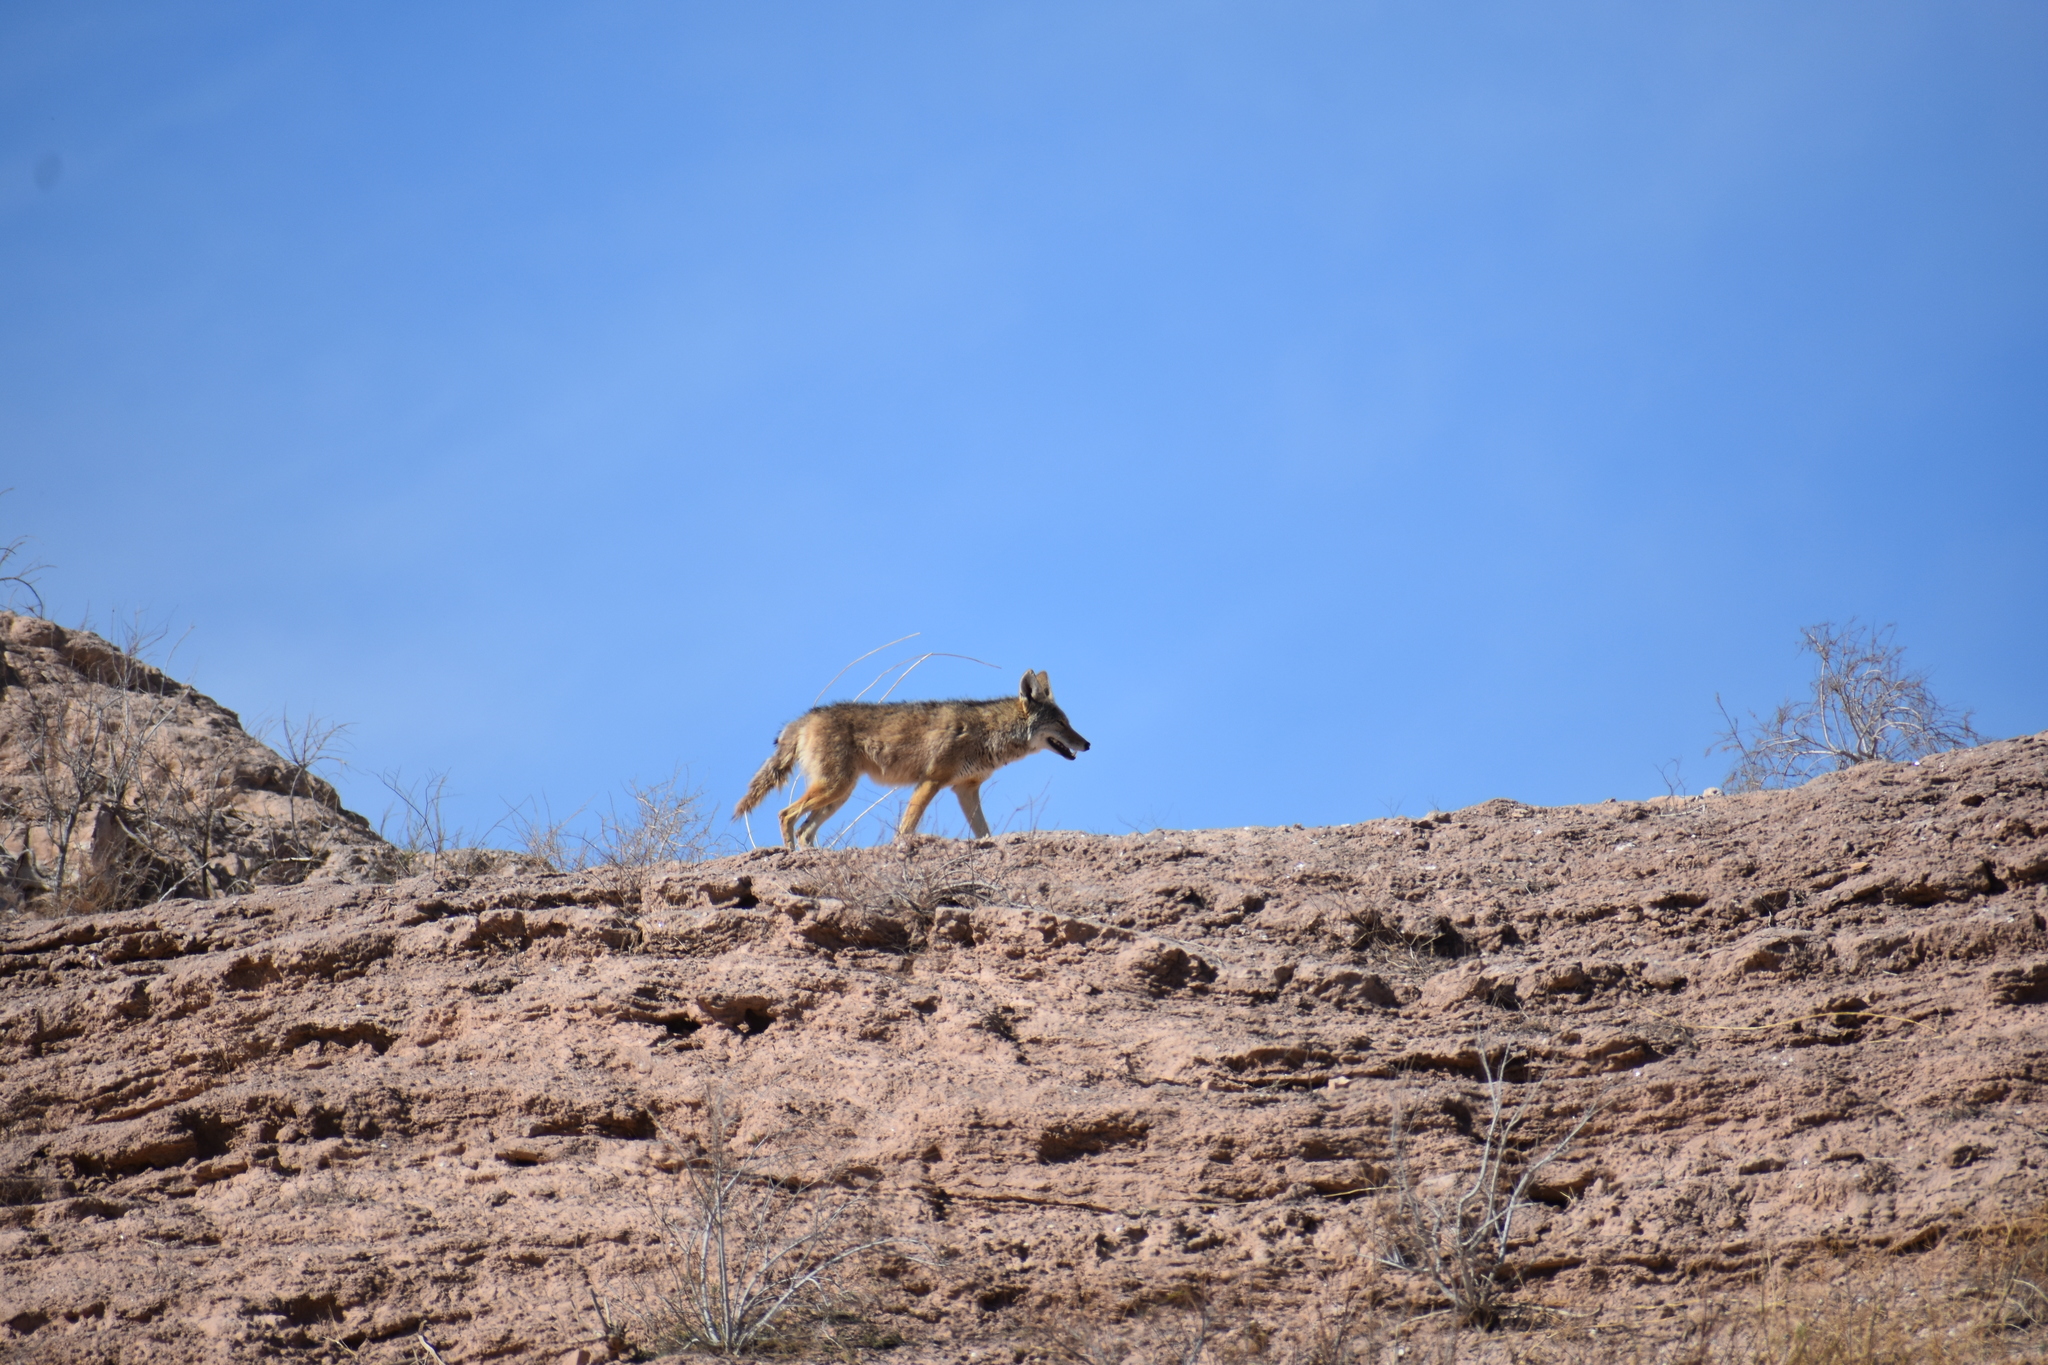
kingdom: Animalia
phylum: Chordata
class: Mammalia
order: Carnivora
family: Canidae
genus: Canis
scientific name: Canis latrans
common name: Coyote
